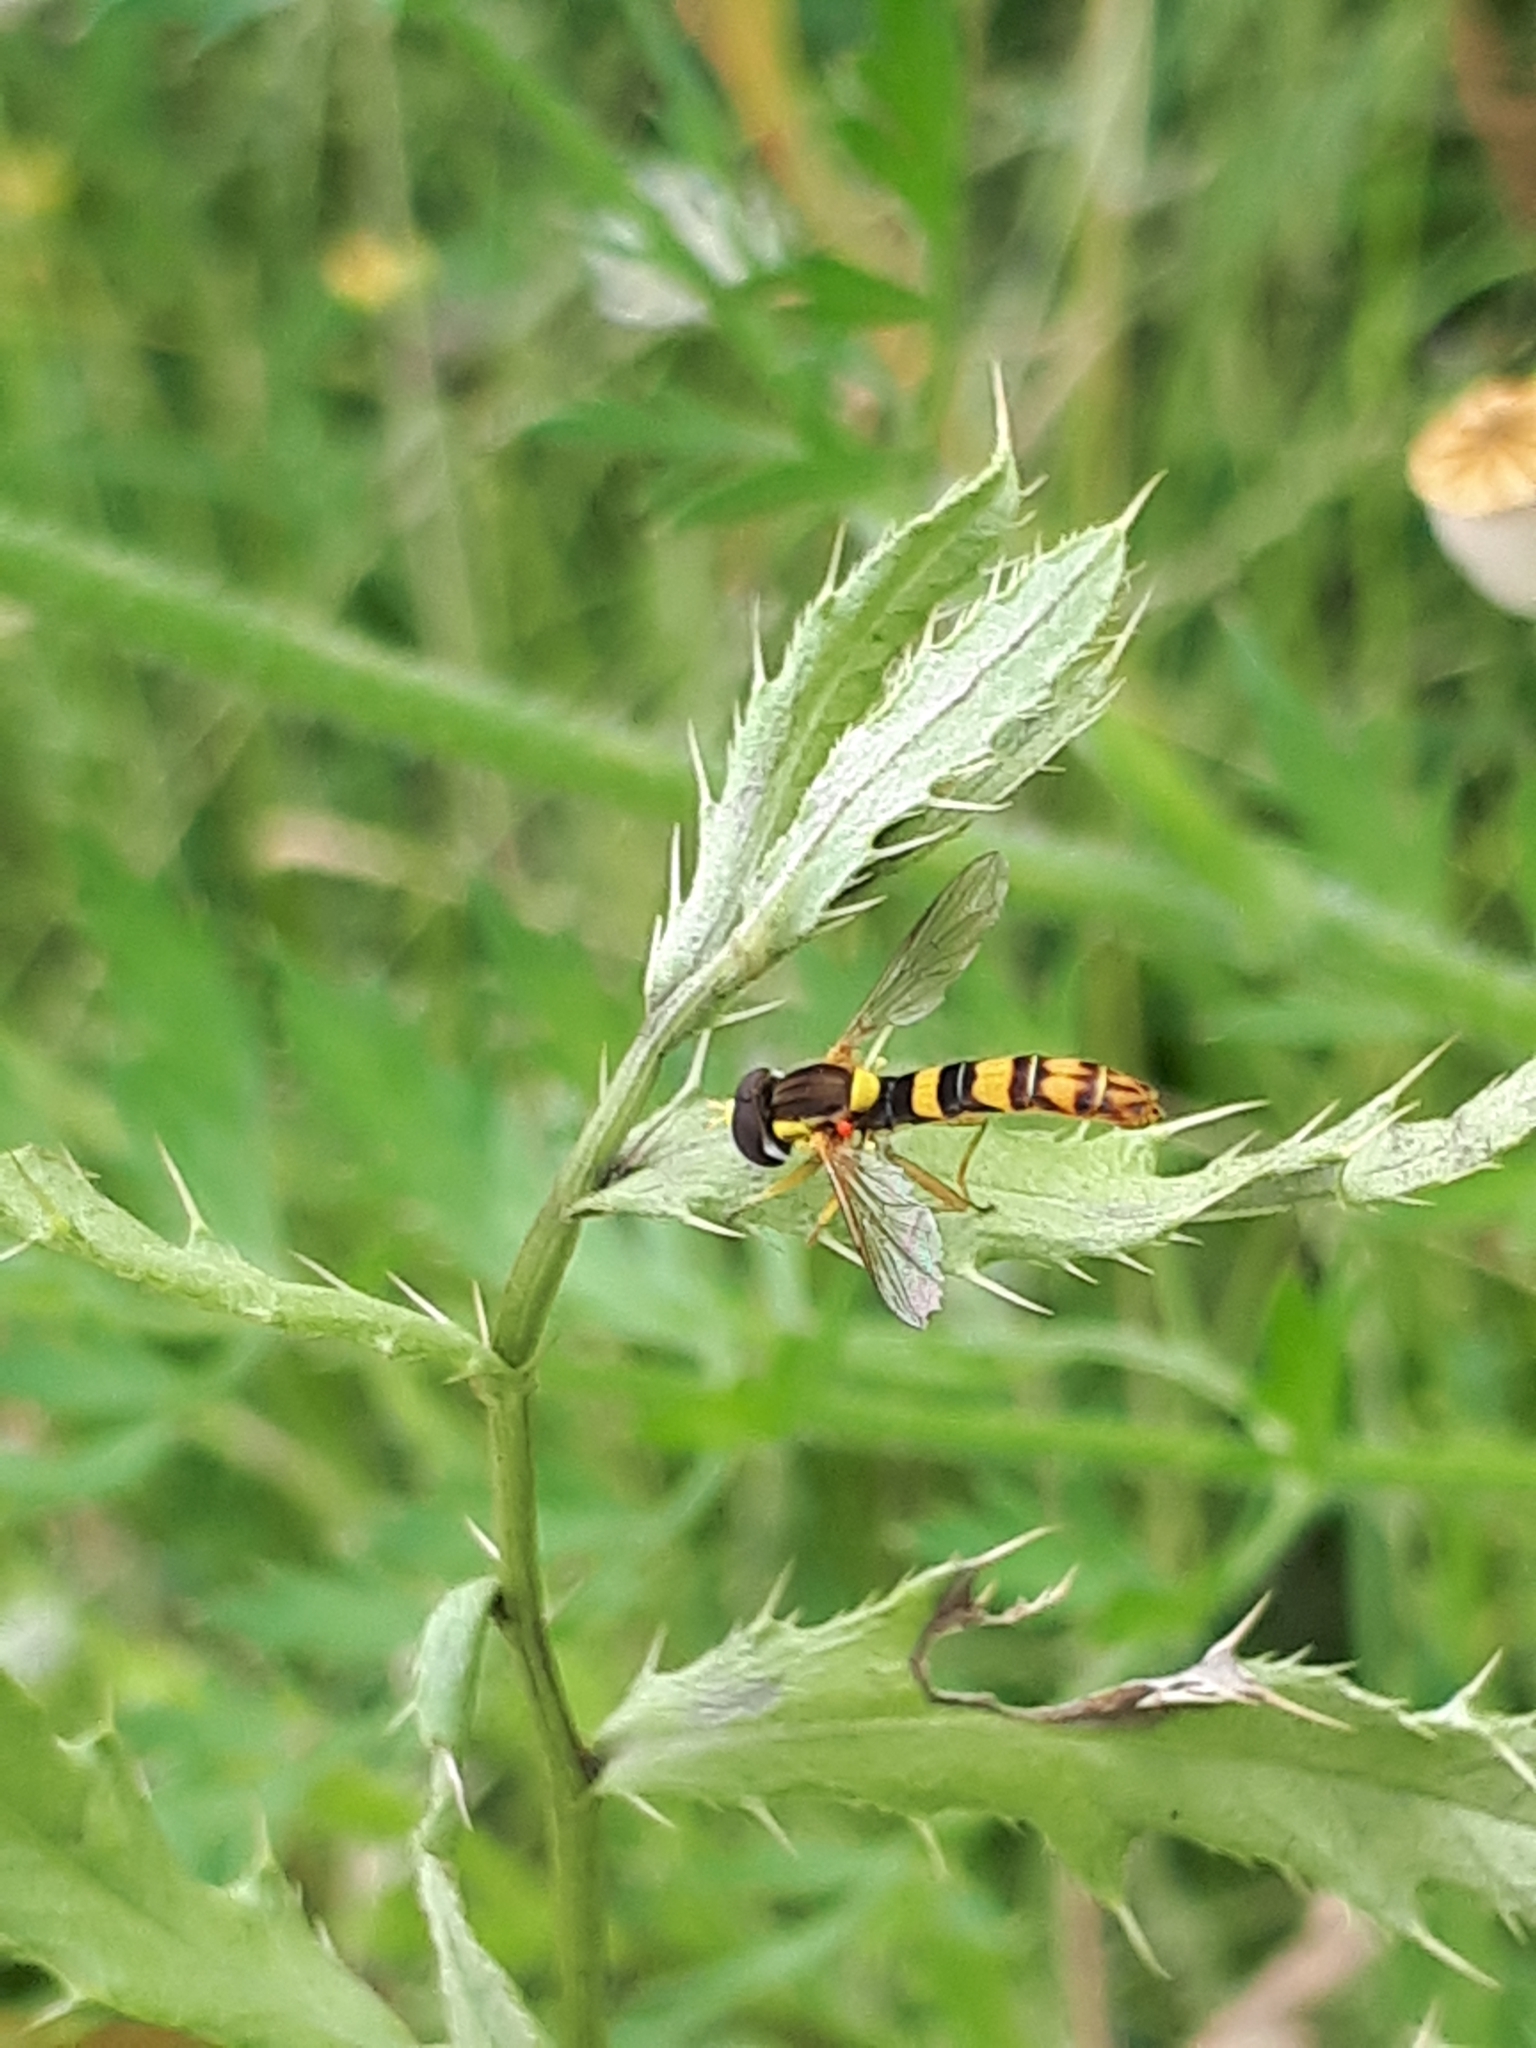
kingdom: Animalia
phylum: Arthropoda
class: Insecta
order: Diptera
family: Syrphidae
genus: Sphaerophoria
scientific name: Sphaerophoria scripta
